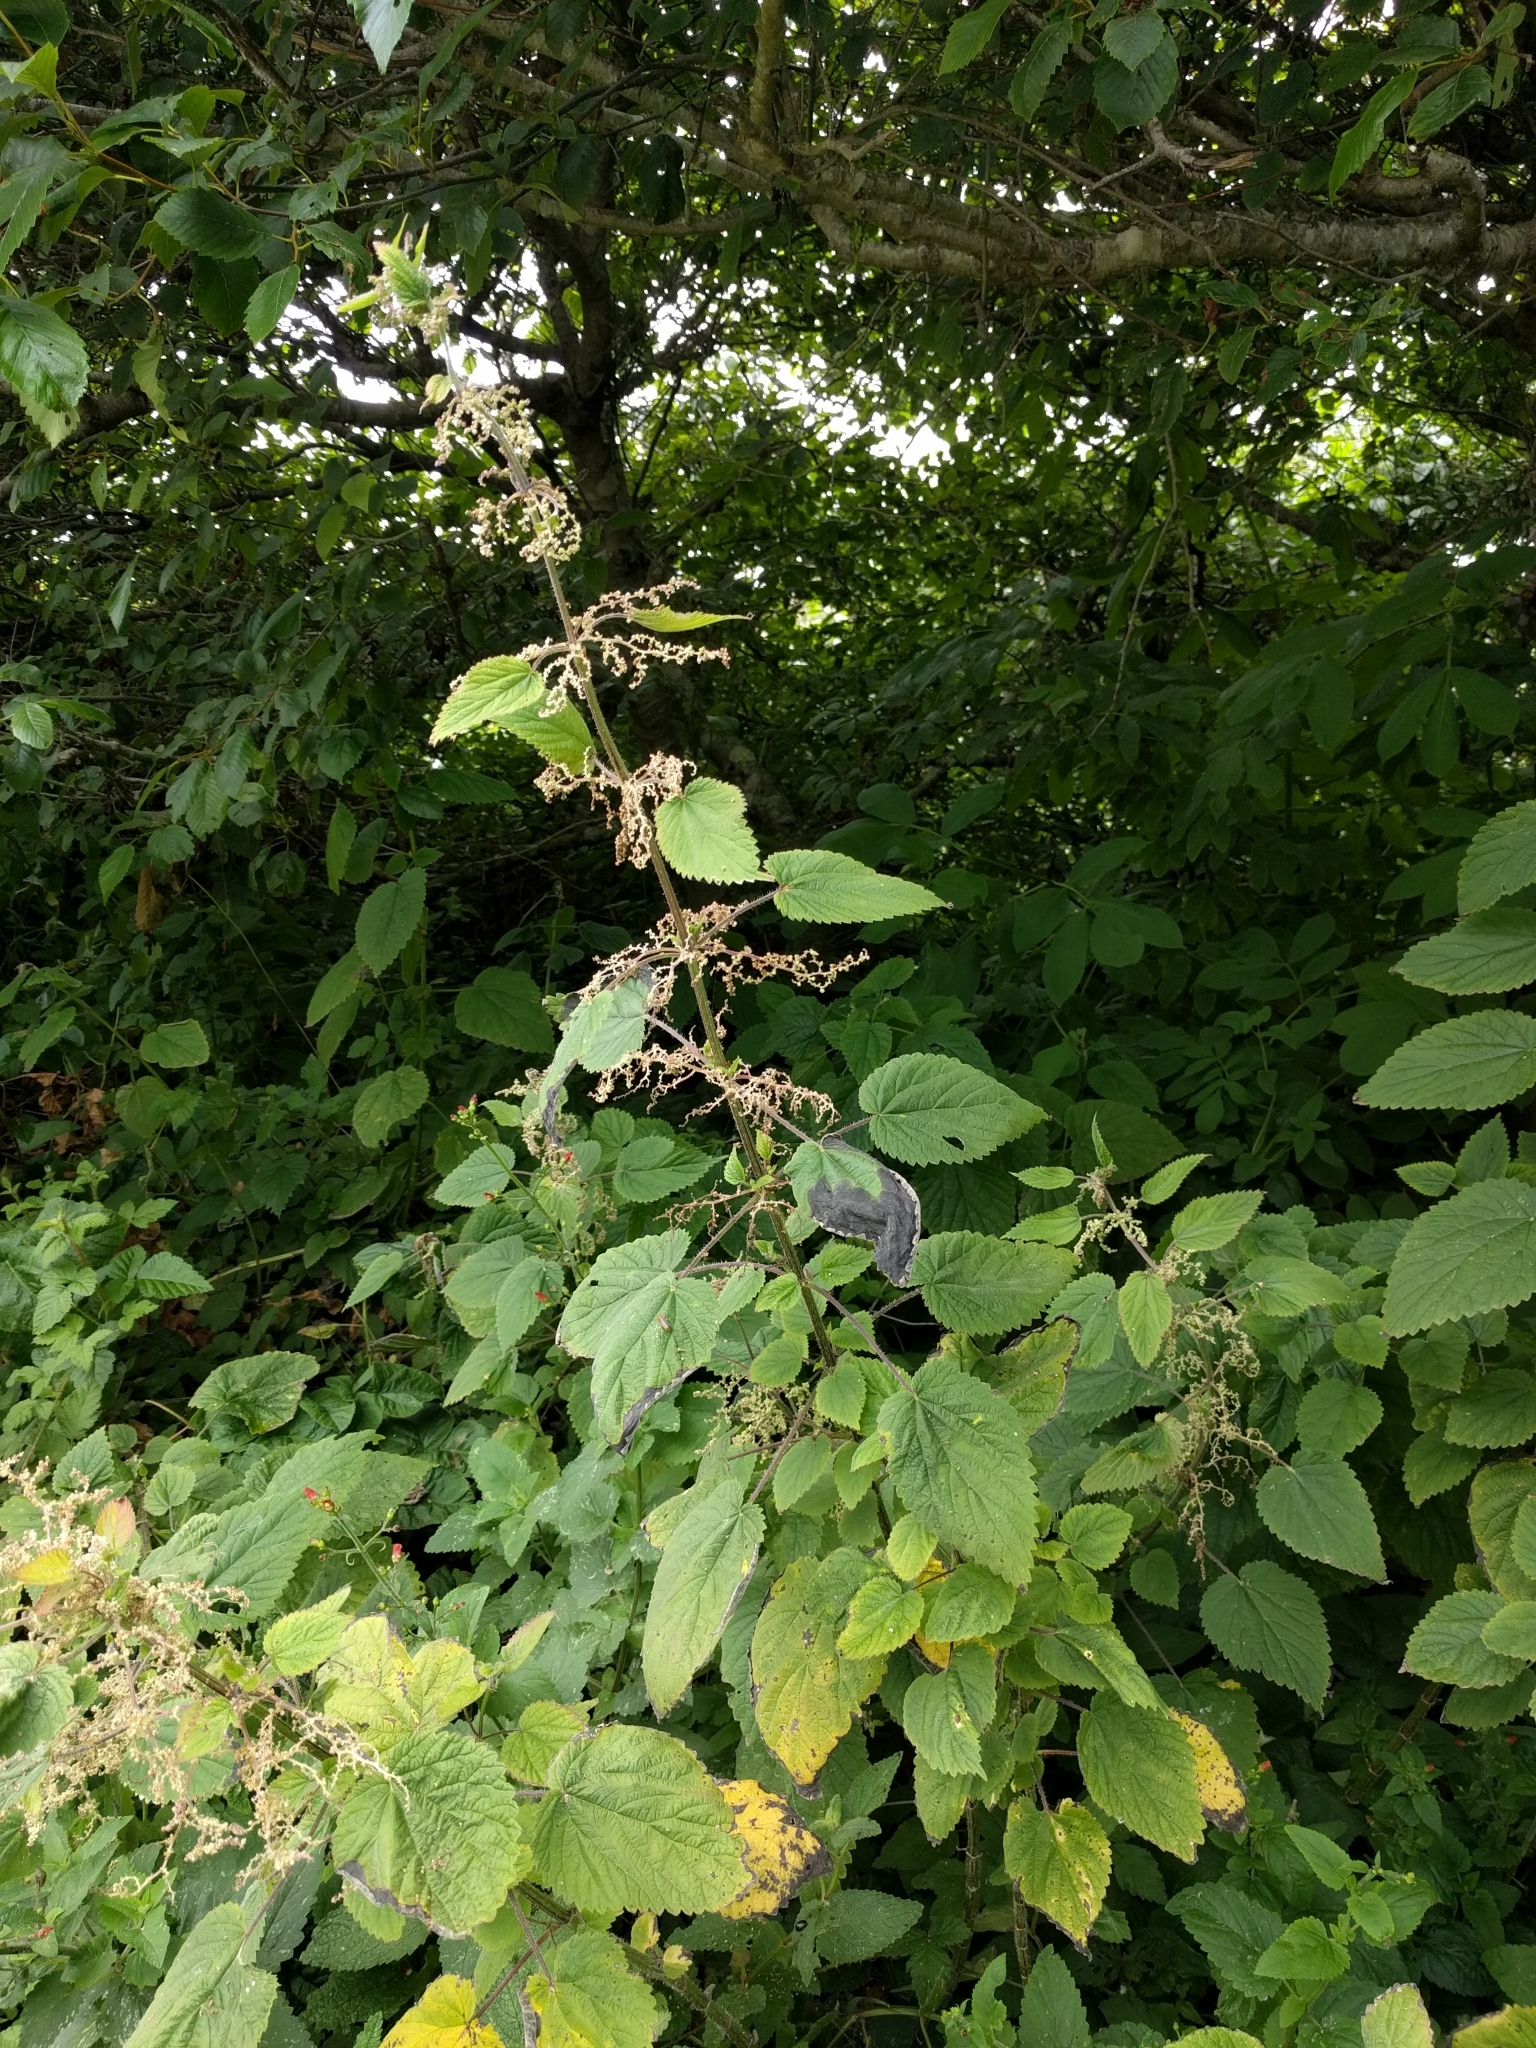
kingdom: Plantae
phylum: Tracheophyta
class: Magnoliopsida
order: Rosales
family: Urticaceae
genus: Urtica
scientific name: Urtica dioica
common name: Common nettle
